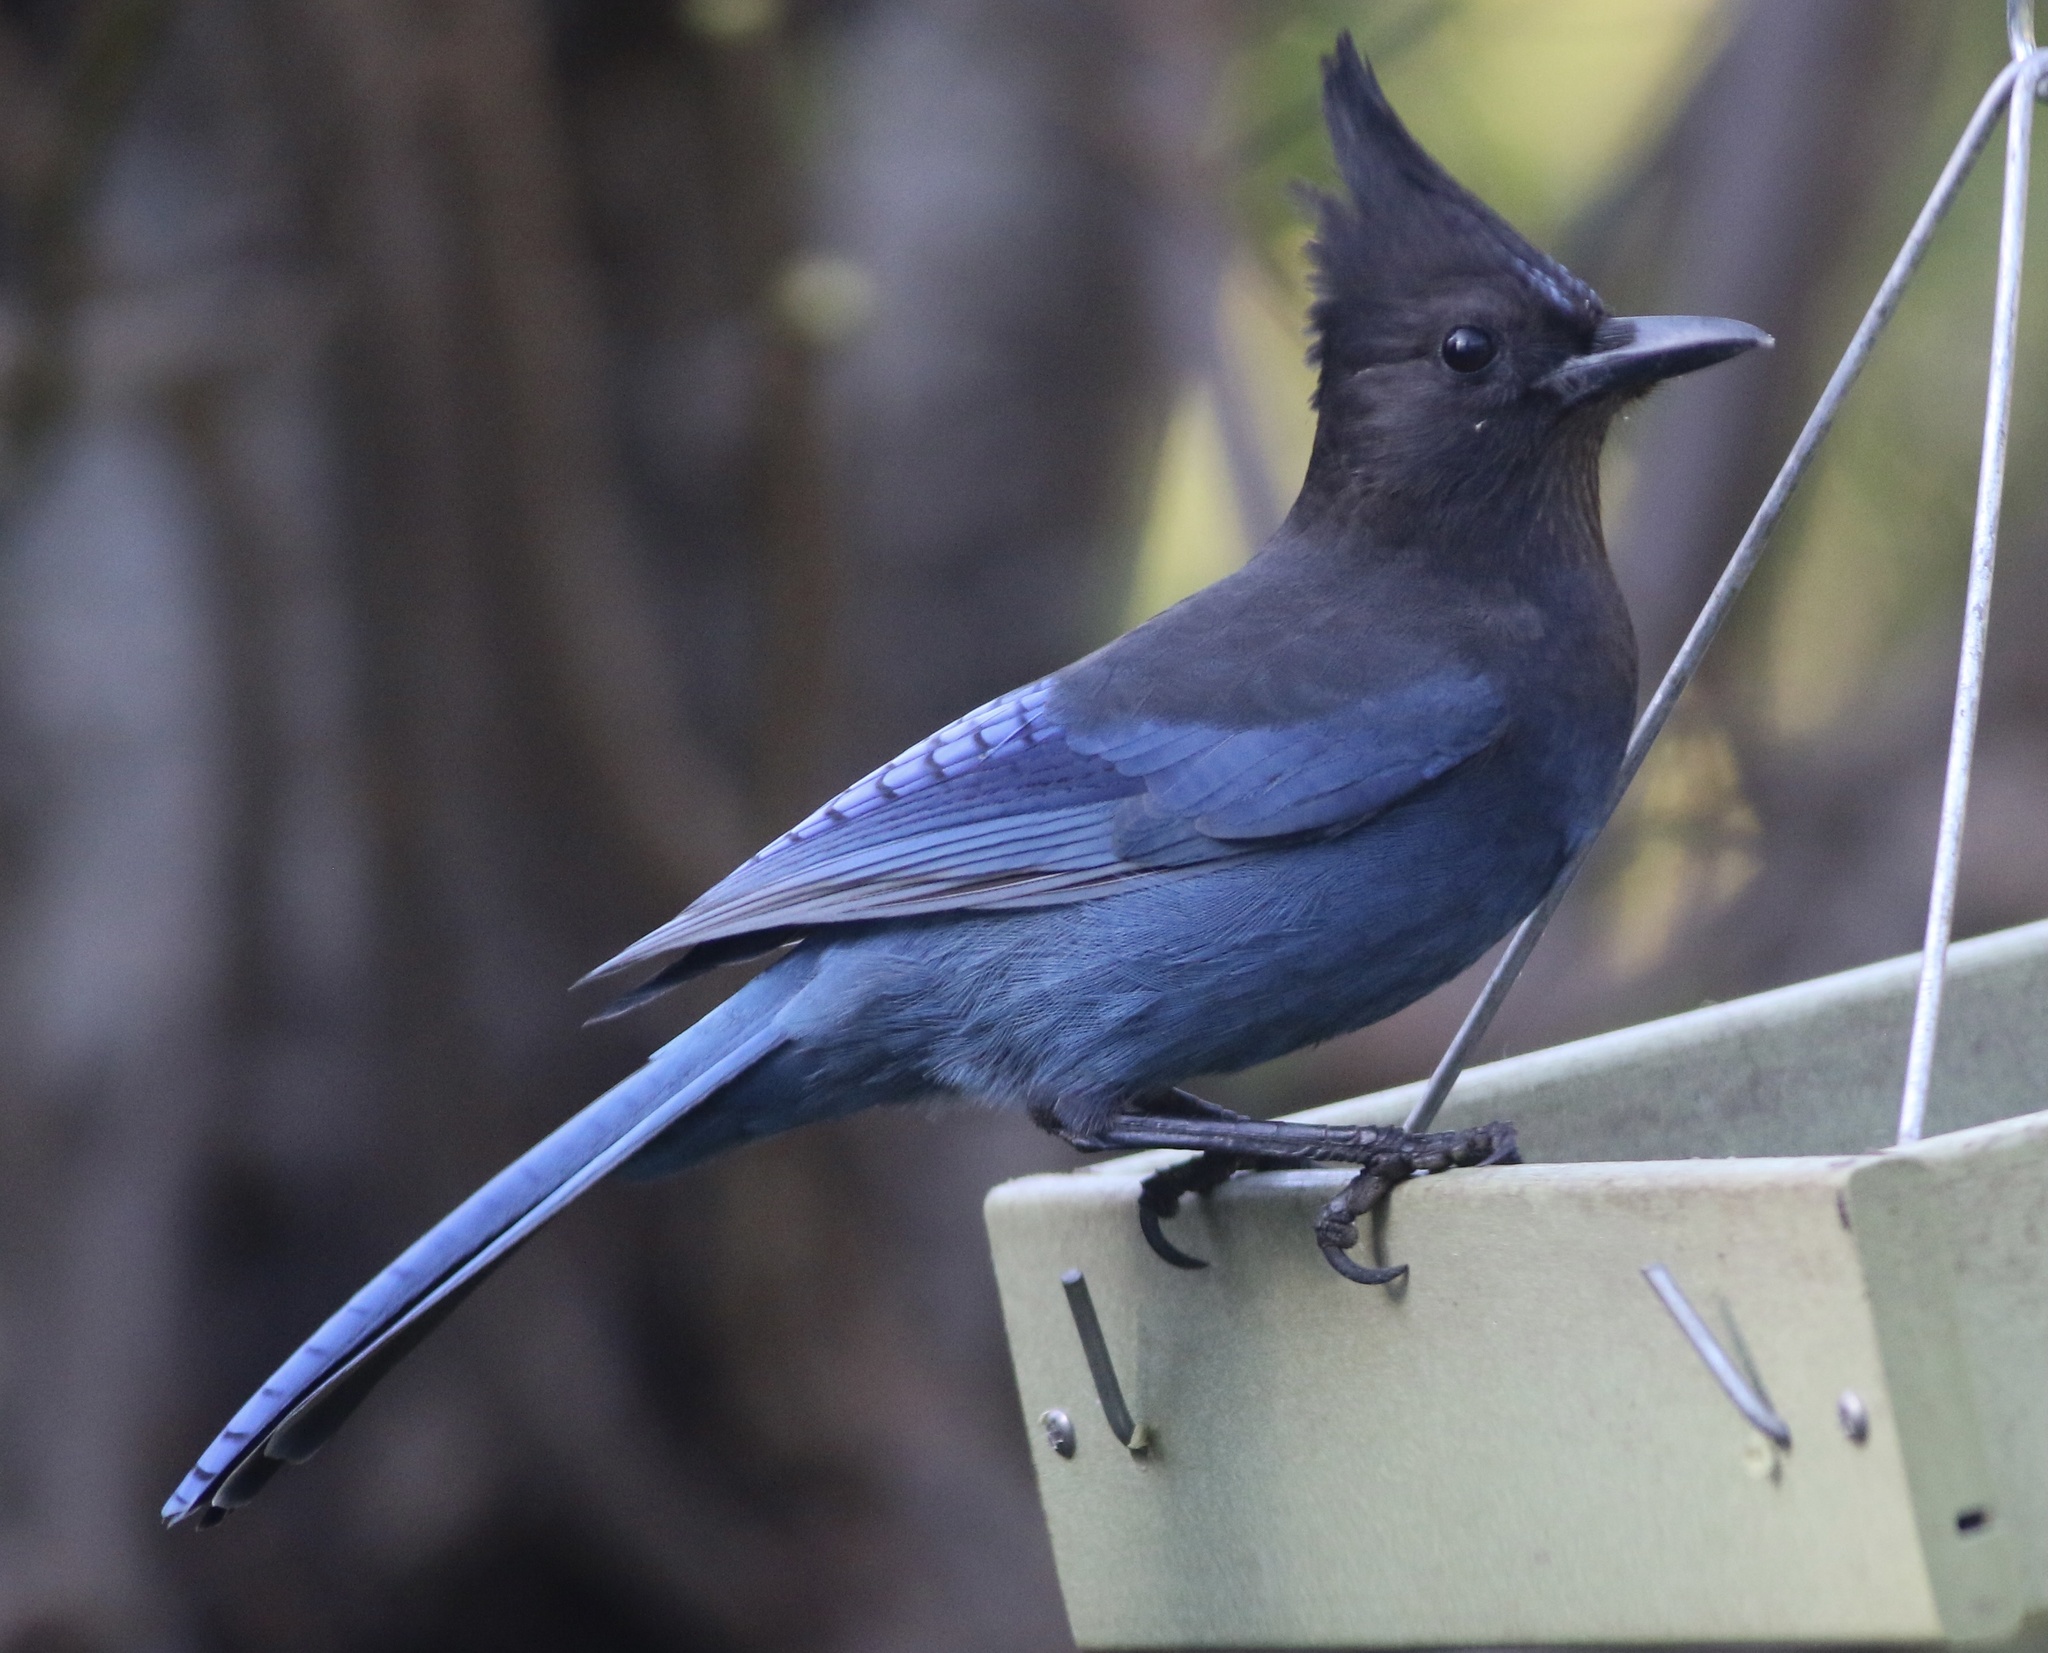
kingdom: Animalia
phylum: Chordata
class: Aves
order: Passeriformes
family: Corvidae
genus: Cyanocitta
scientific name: Cyanocitta stelleri
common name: Steller's jay
